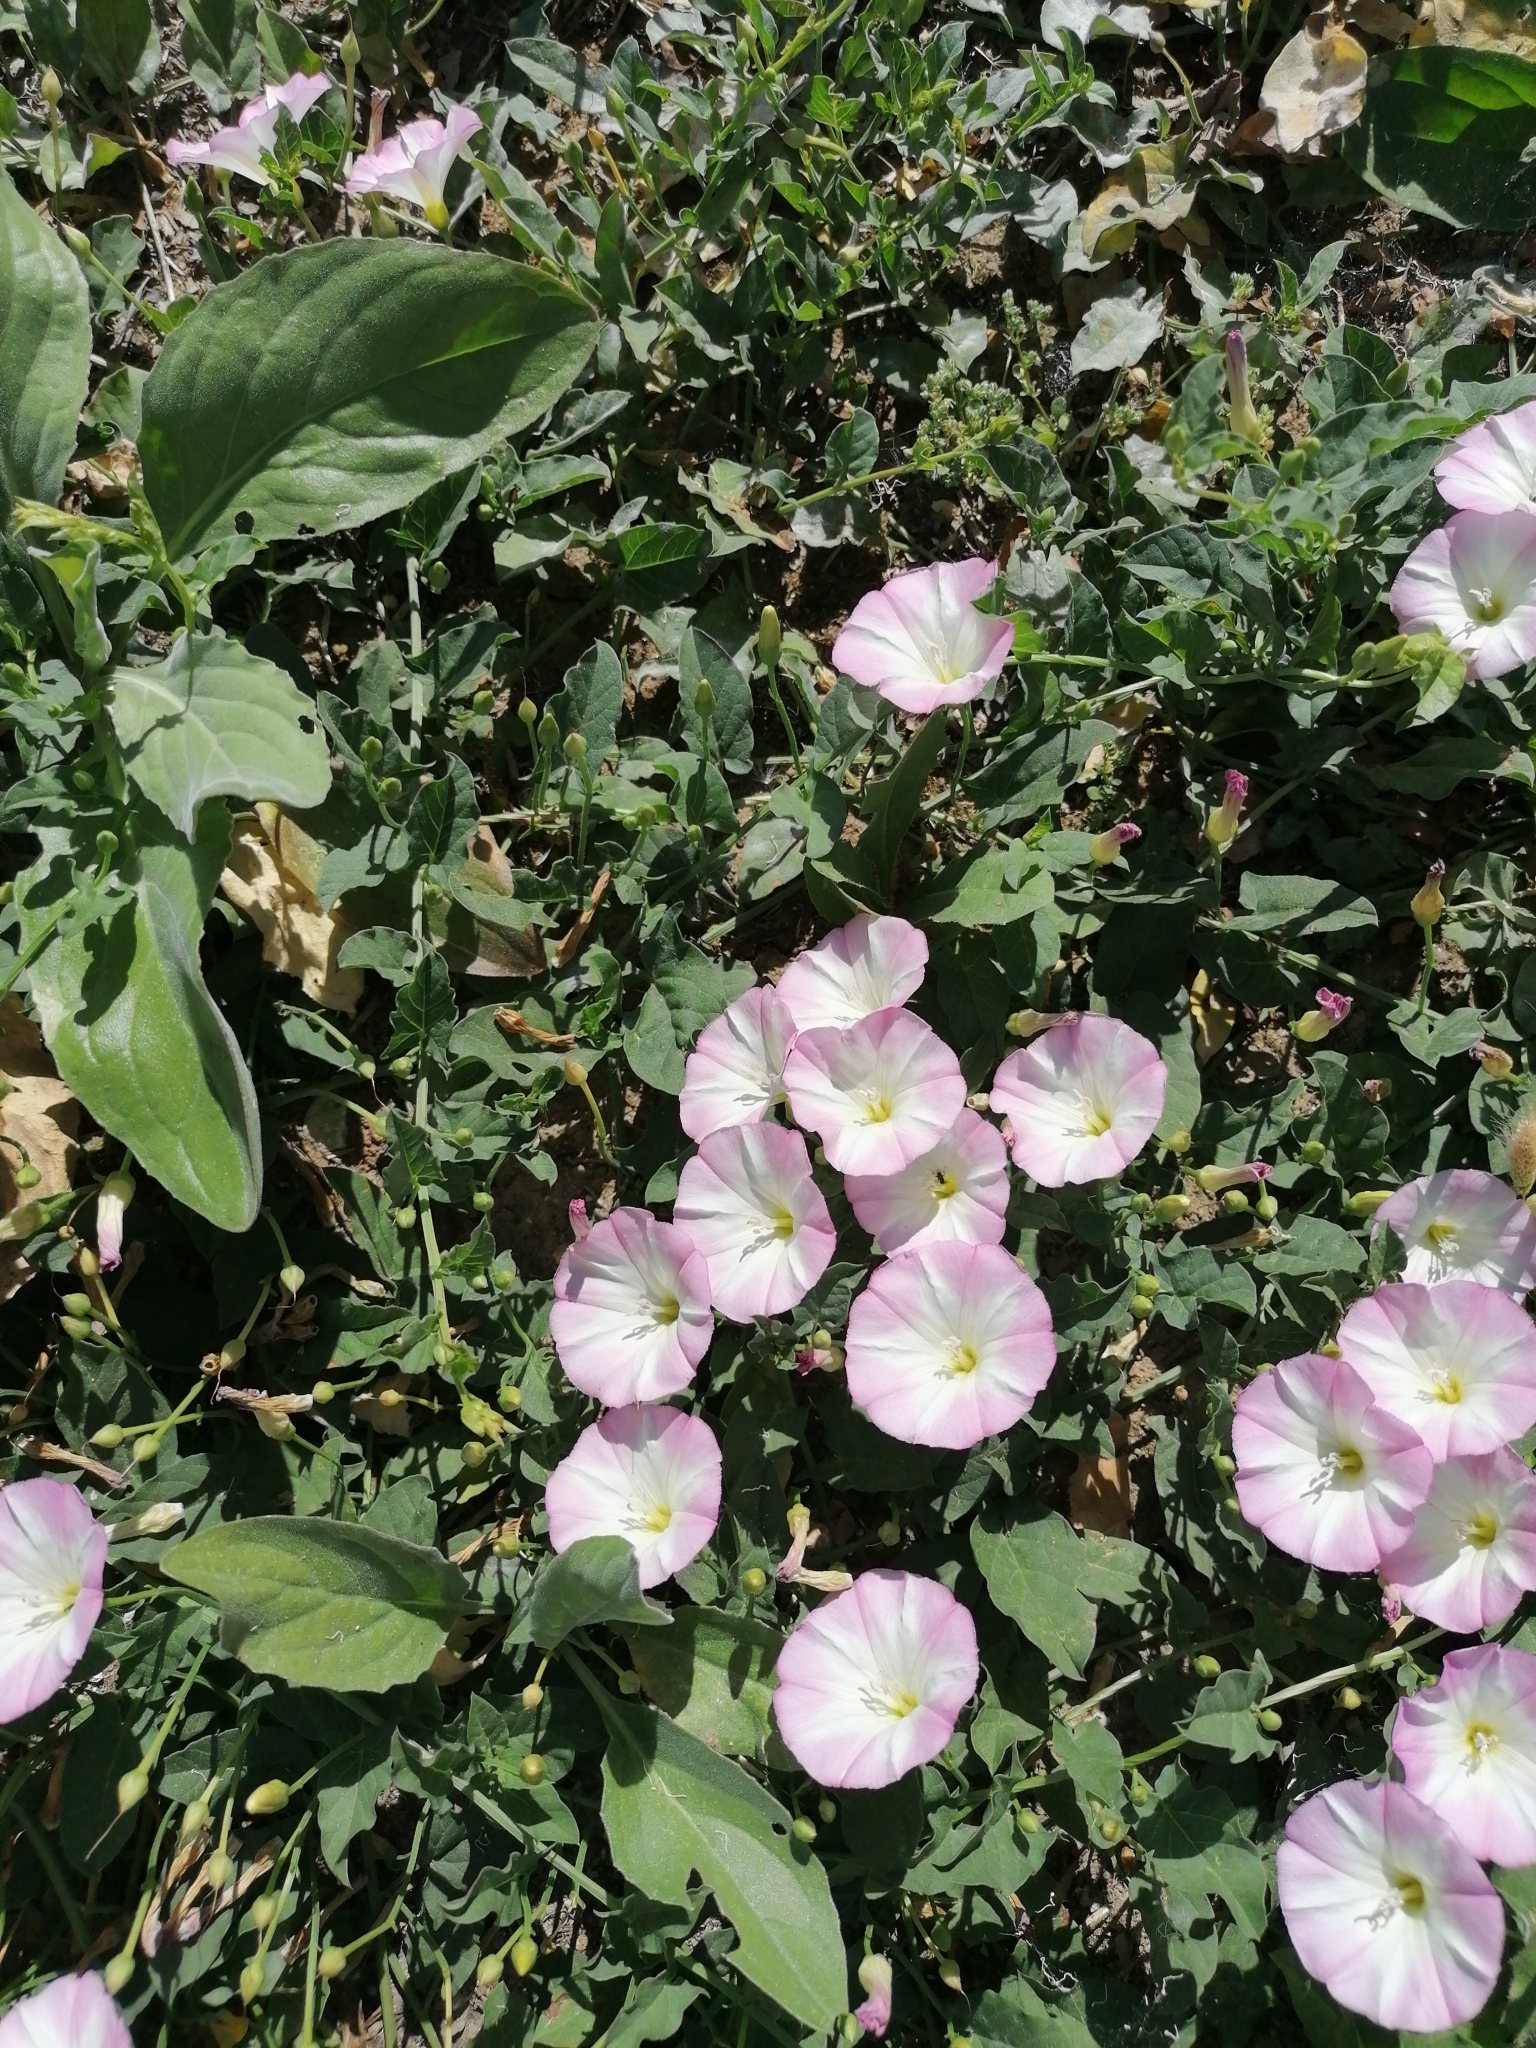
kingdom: Plantae
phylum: Tracheophyta
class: Magnoliopsida
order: Solanales
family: Convolvulaceae
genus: Convolvulus
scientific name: Convolvulus arvensis
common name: Field bindweed
